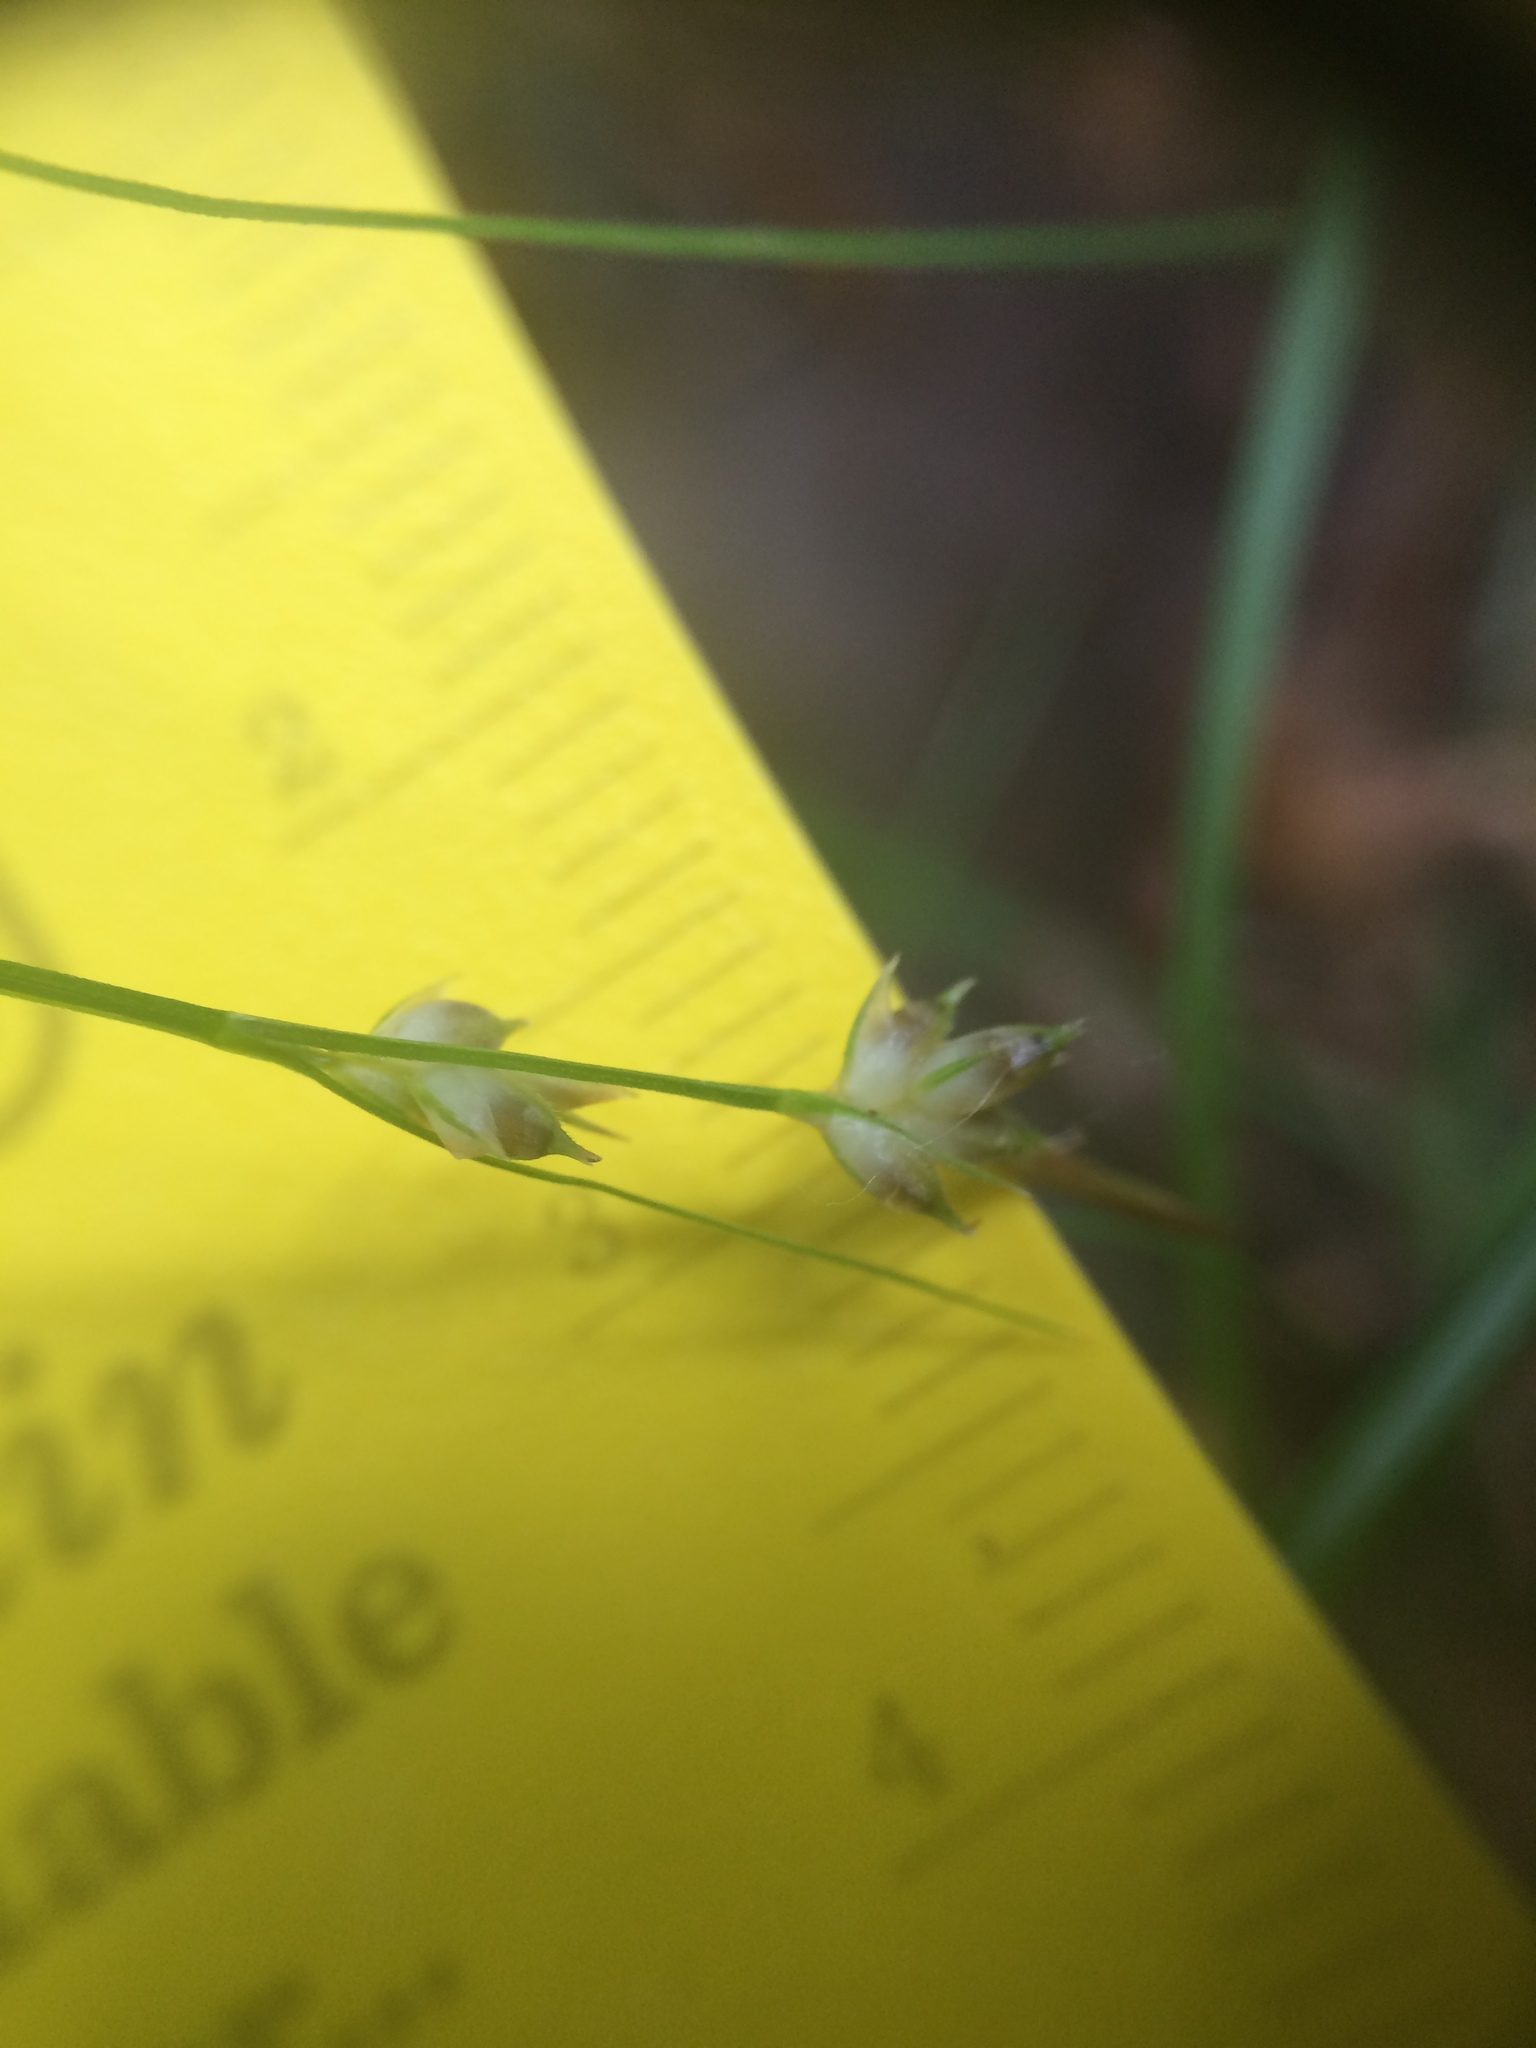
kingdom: Plantae
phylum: Tracheophyta
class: Liliopsida
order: Poales
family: Cyperaceae
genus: Carex
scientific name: Carex novae-angliae
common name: New england sedge
